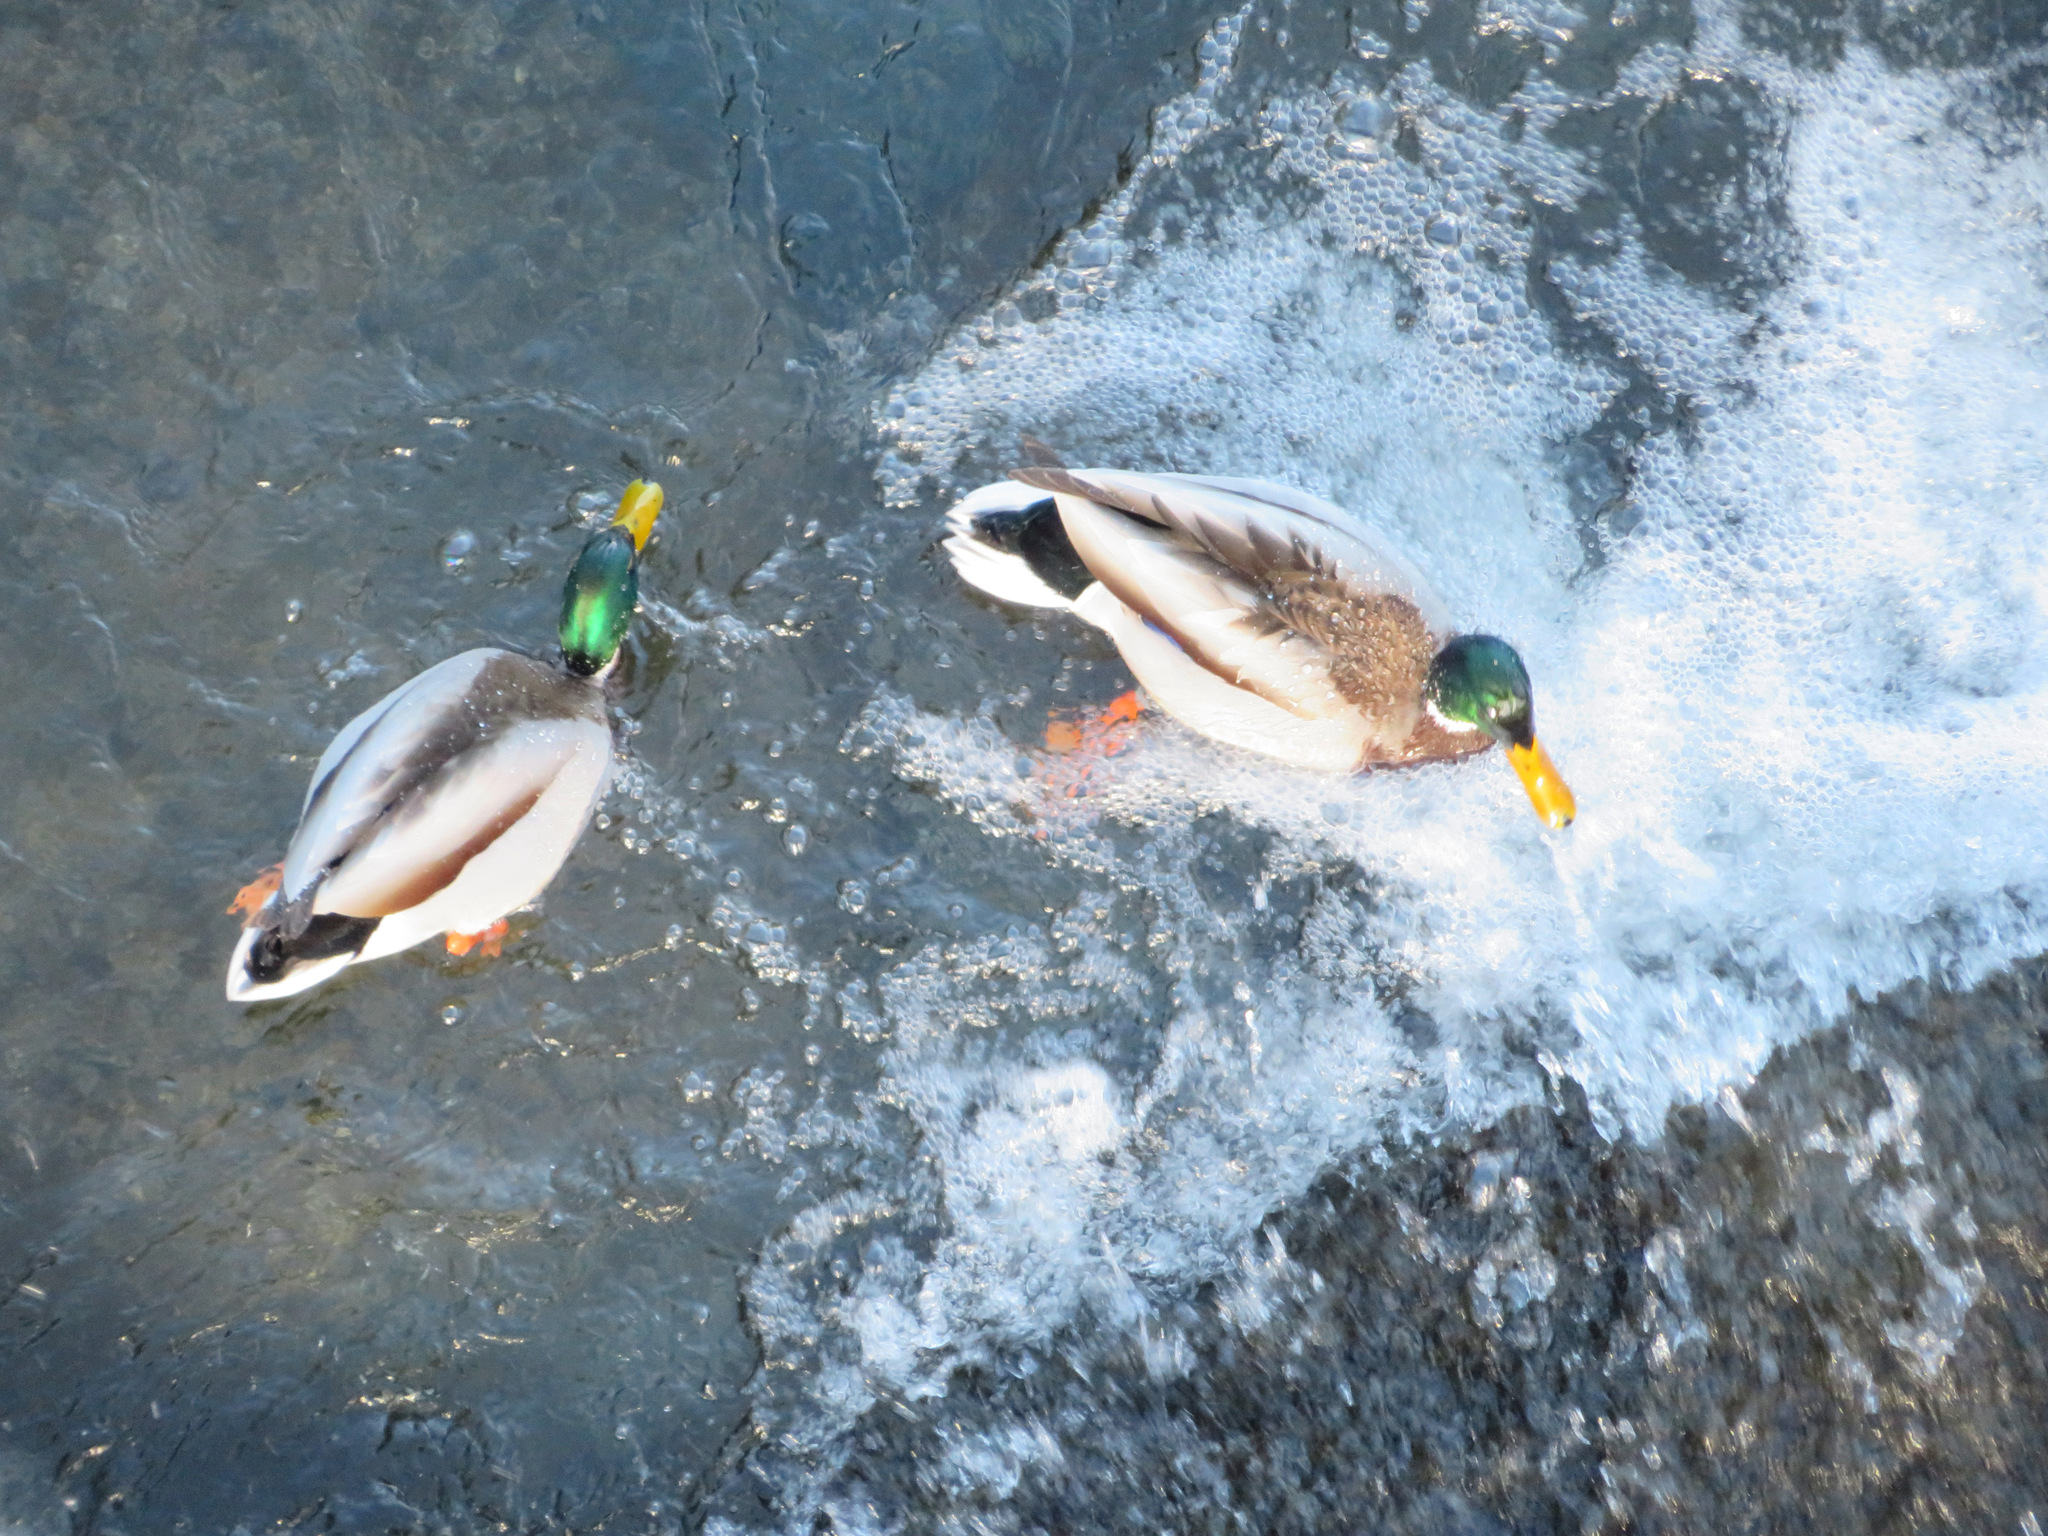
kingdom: Animalia
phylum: Chordata
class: Aves
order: Anseriformes
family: Anatidae
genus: Anas
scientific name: Anas platyrhynchos
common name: Mallard
